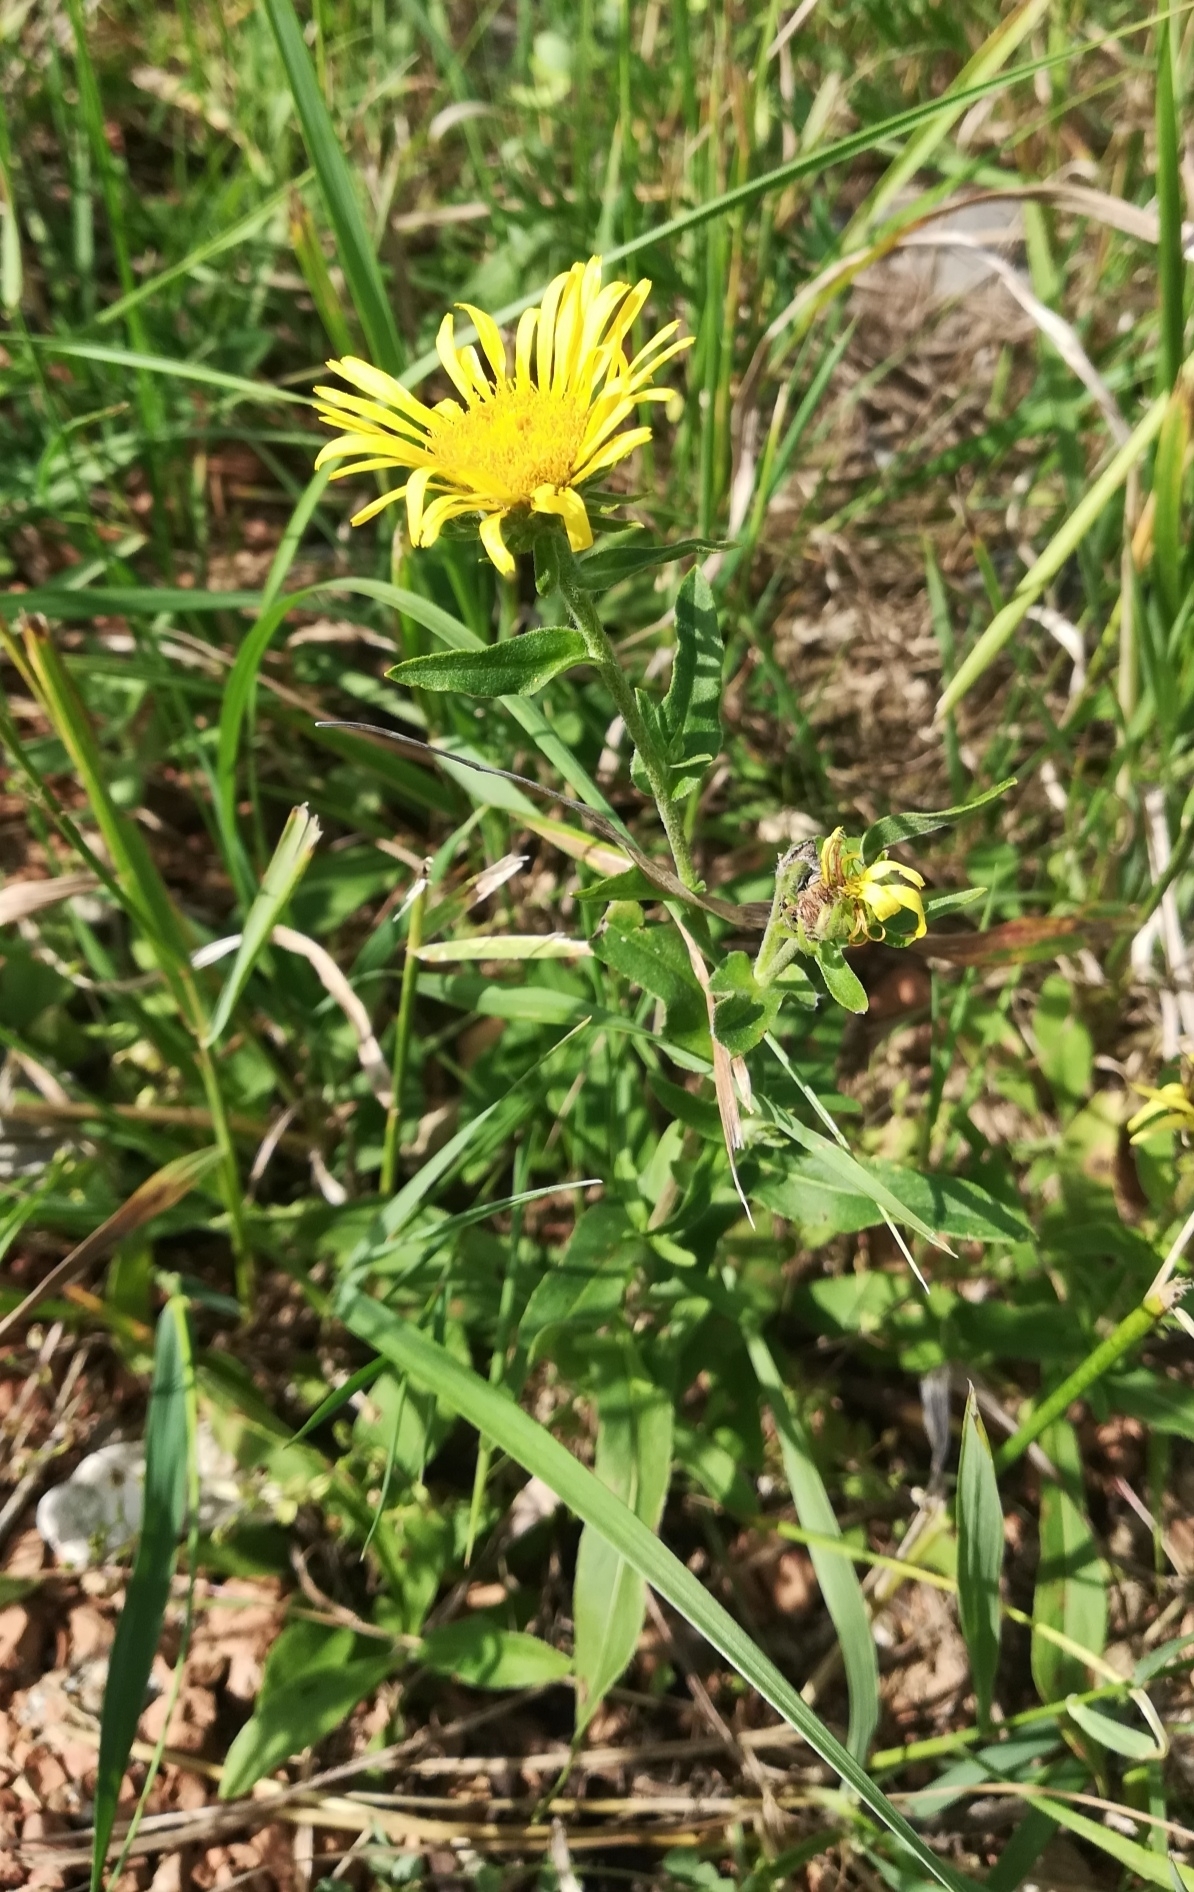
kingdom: Plantae
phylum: Tracheophyta
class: Magnoliopsida
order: Asterales
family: Asteraceae
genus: Pentanema
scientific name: Pentanema britannicum
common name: British elecampane
